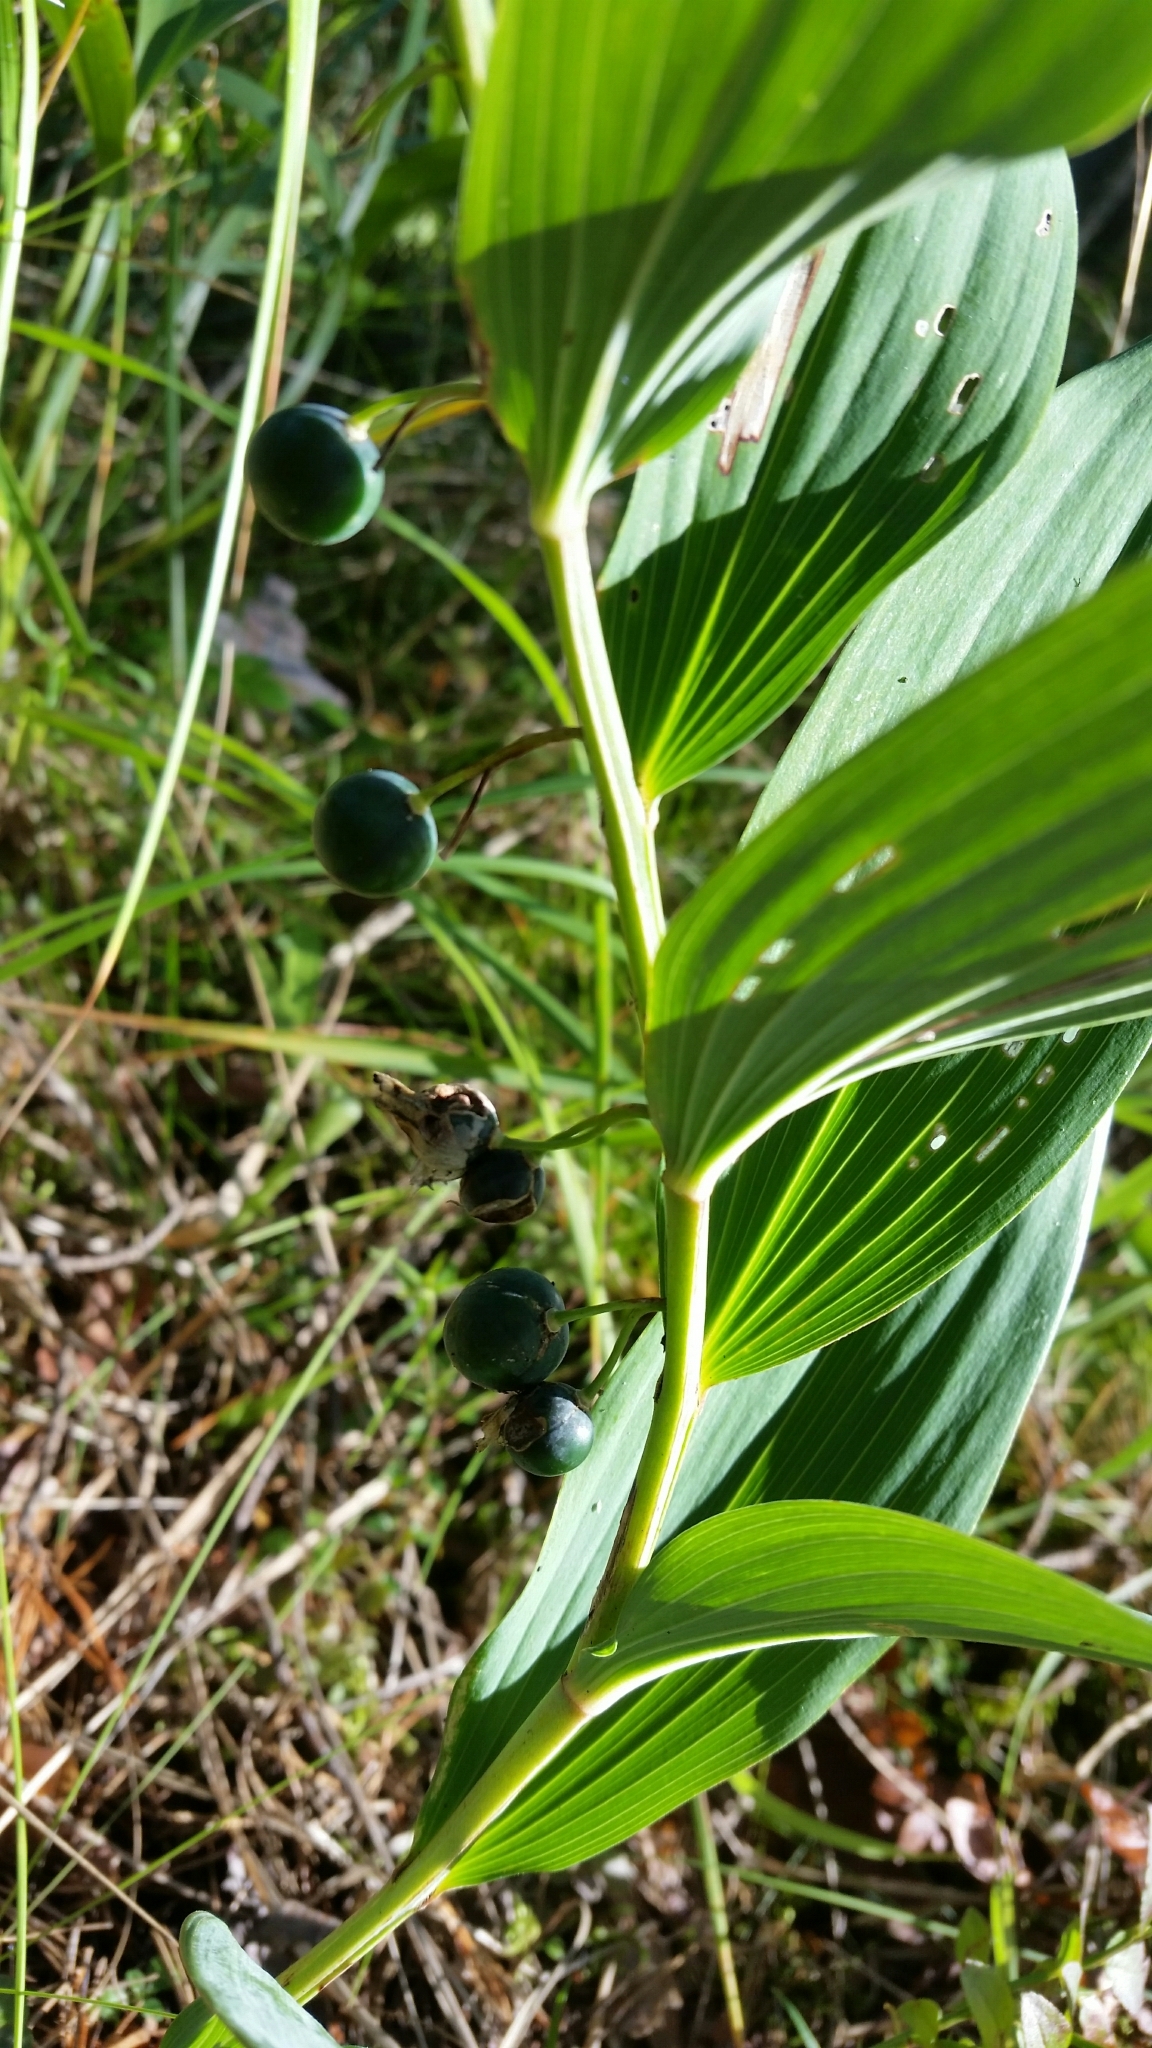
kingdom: Plantae
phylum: Tracheophyta
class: Liliopsida
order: Asparagales
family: Asparagaceae
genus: Polygonatum
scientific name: Polygonatum odoratum
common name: Angular solomon's-seal
